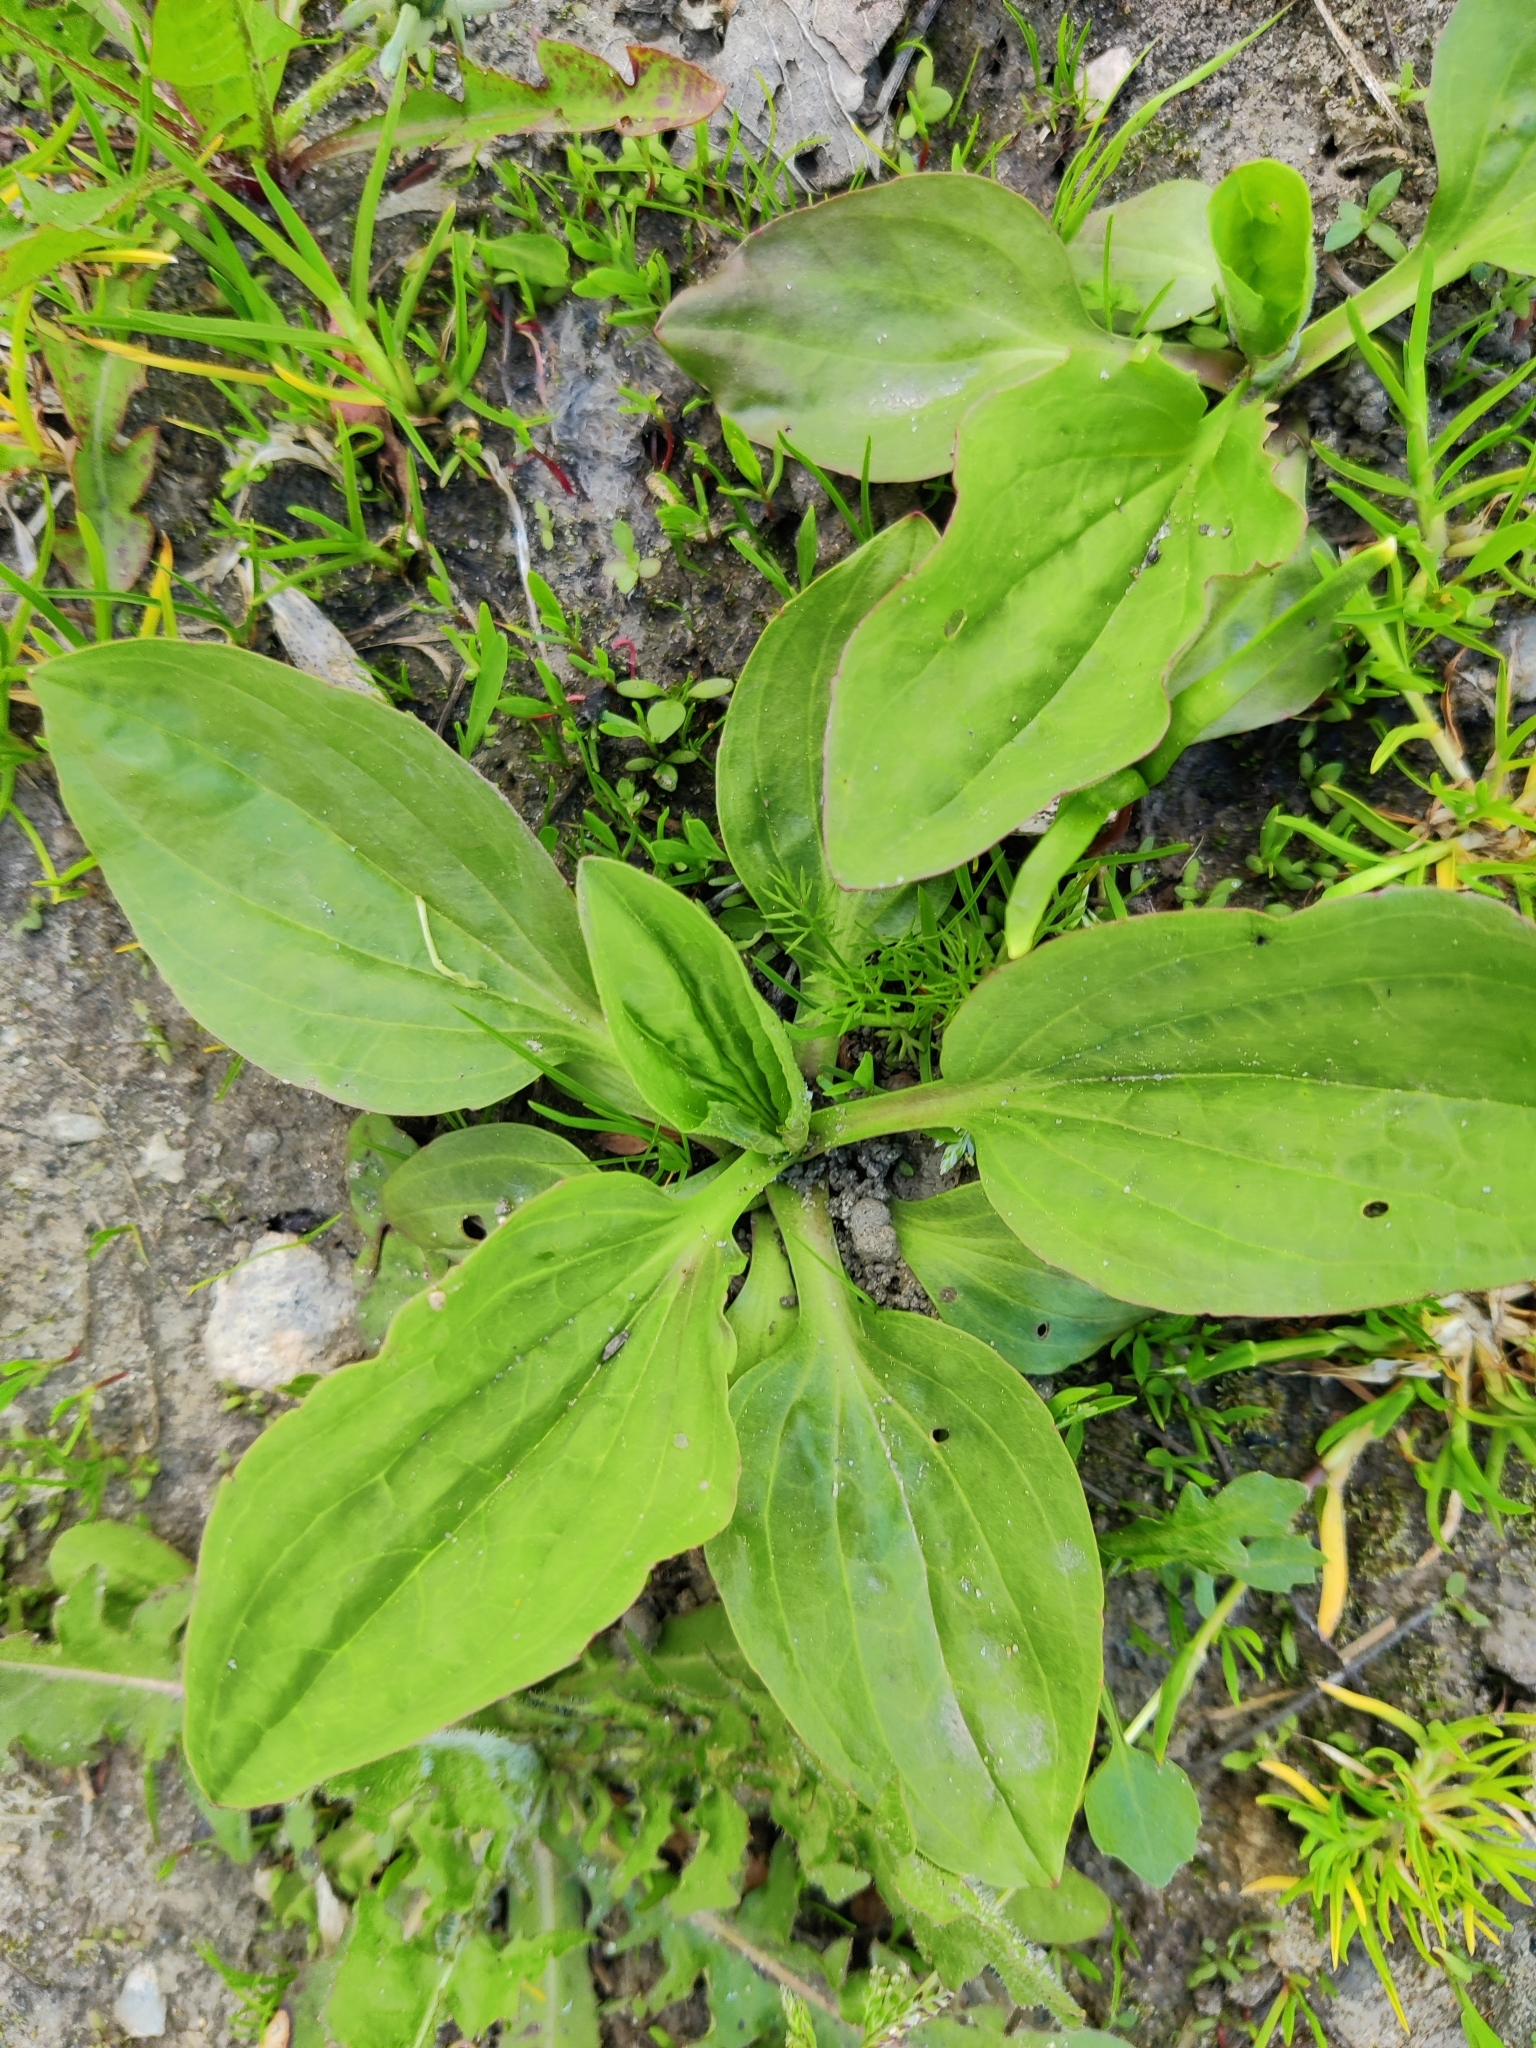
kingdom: Plantae
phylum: Tracheophyta
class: Magnoliopsida
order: Lamiales
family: Plantaginaceae
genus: Plantago
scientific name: Plantago major
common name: Common plantain
